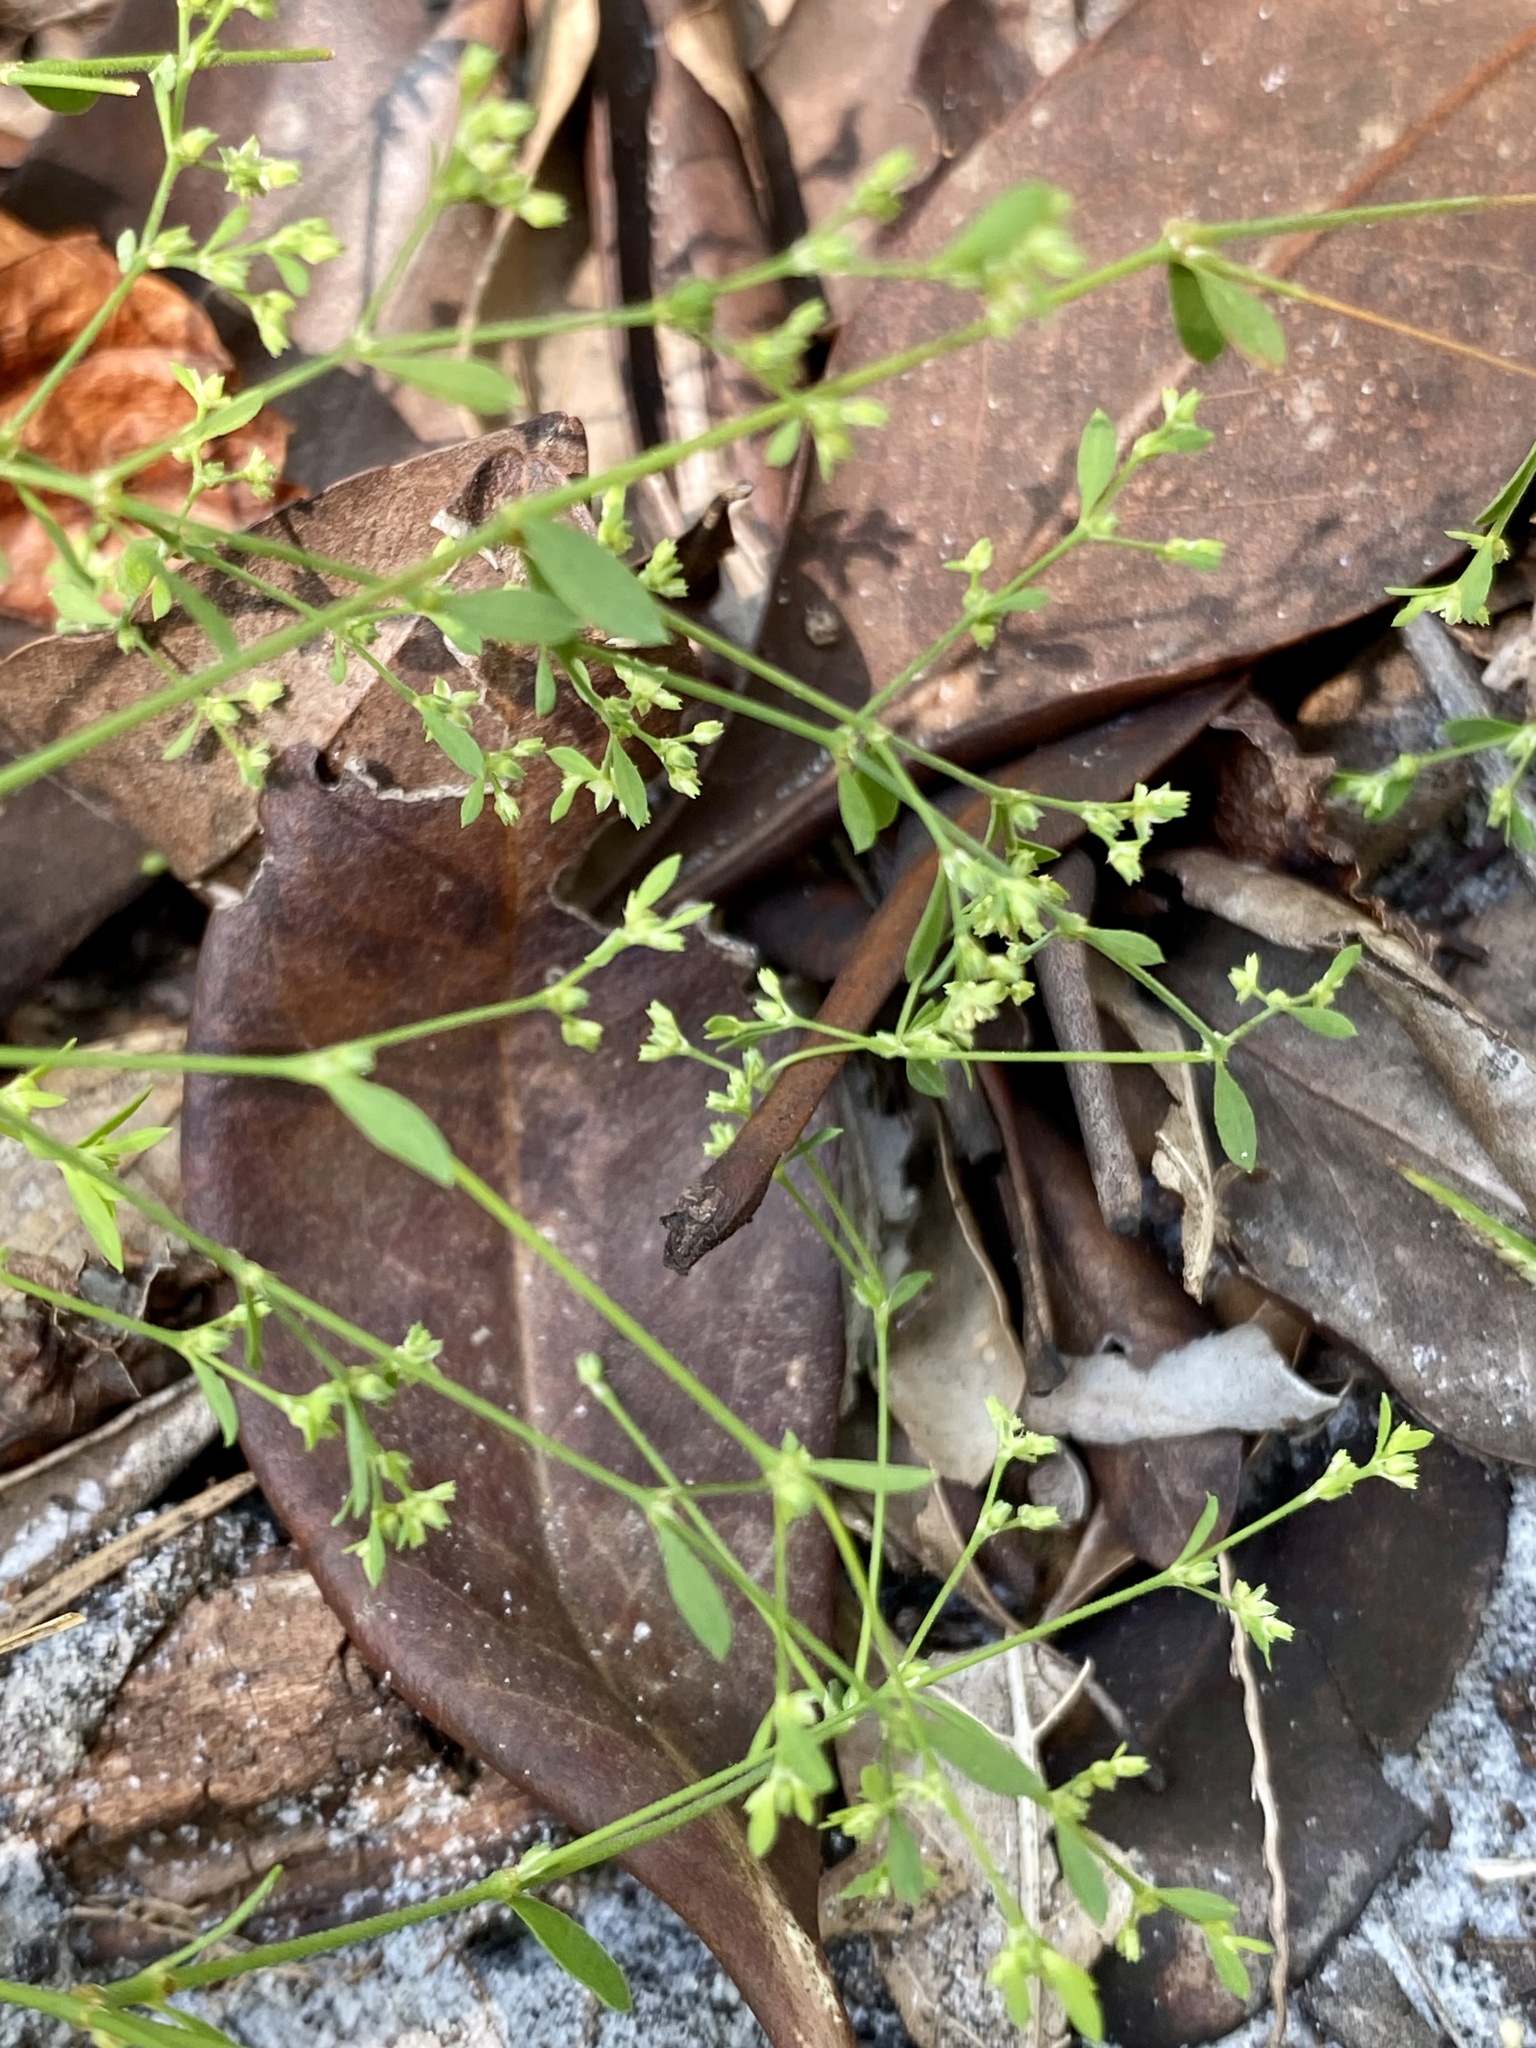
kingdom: Plantae
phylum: Tracheophyta
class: Magnoliopsida
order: Caryophyllales
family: Caryophyllaceae
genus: Paronychia
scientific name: Paronychia baldwinii
